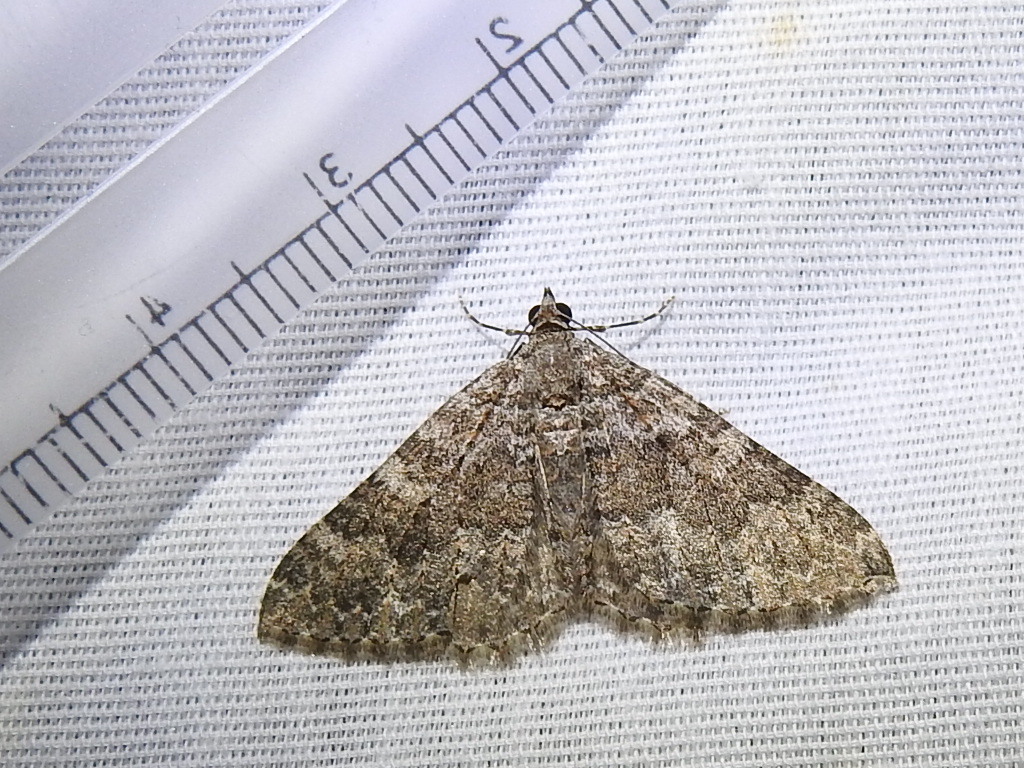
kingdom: Animalia
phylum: Arthropoda
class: Insecta
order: Lepidoptera
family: Geometridae
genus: Disclisioprocta
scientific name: Disclisioprocta stellata
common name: Somber carpet
